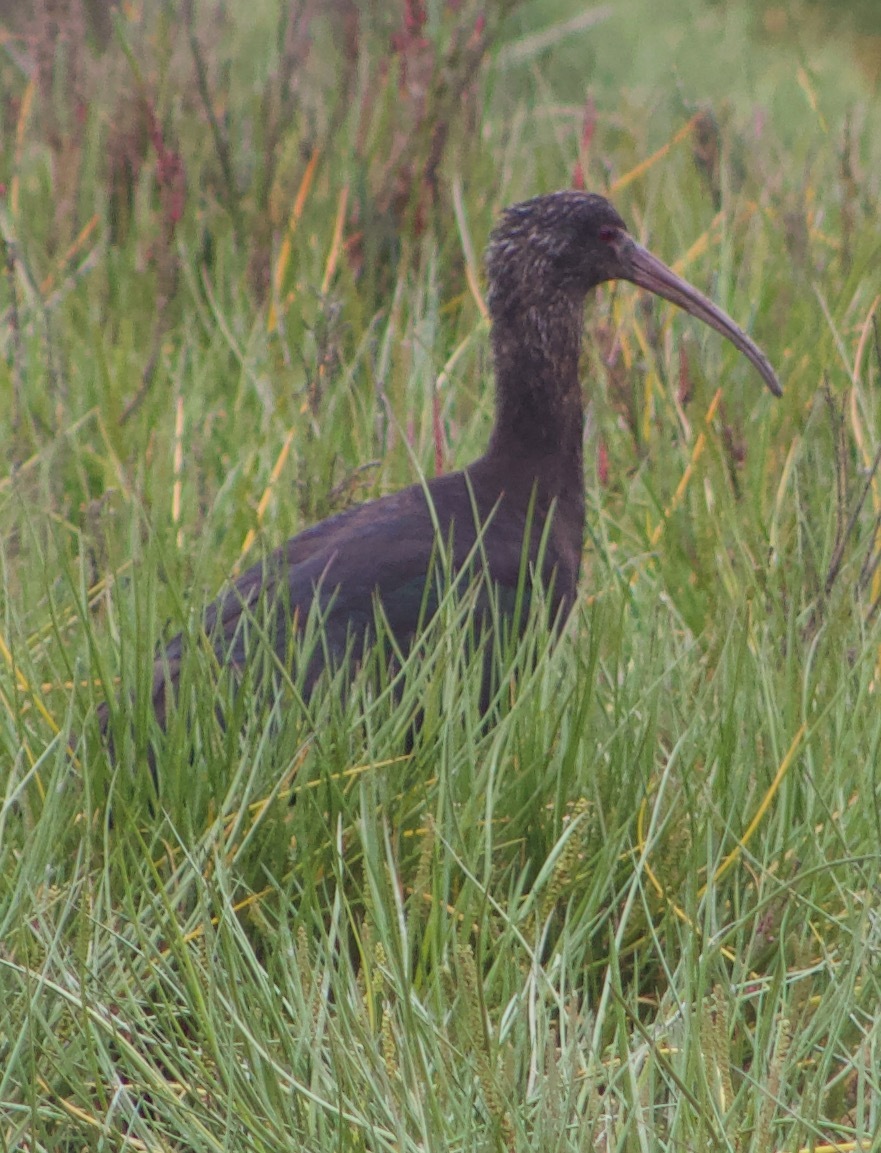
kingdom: Animalia
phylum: Chordata
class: Aves
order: Pelecaniformes
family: Threskiornithidae
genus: Plegadis
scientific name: Plegadis chihi
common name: White-faced ibis
